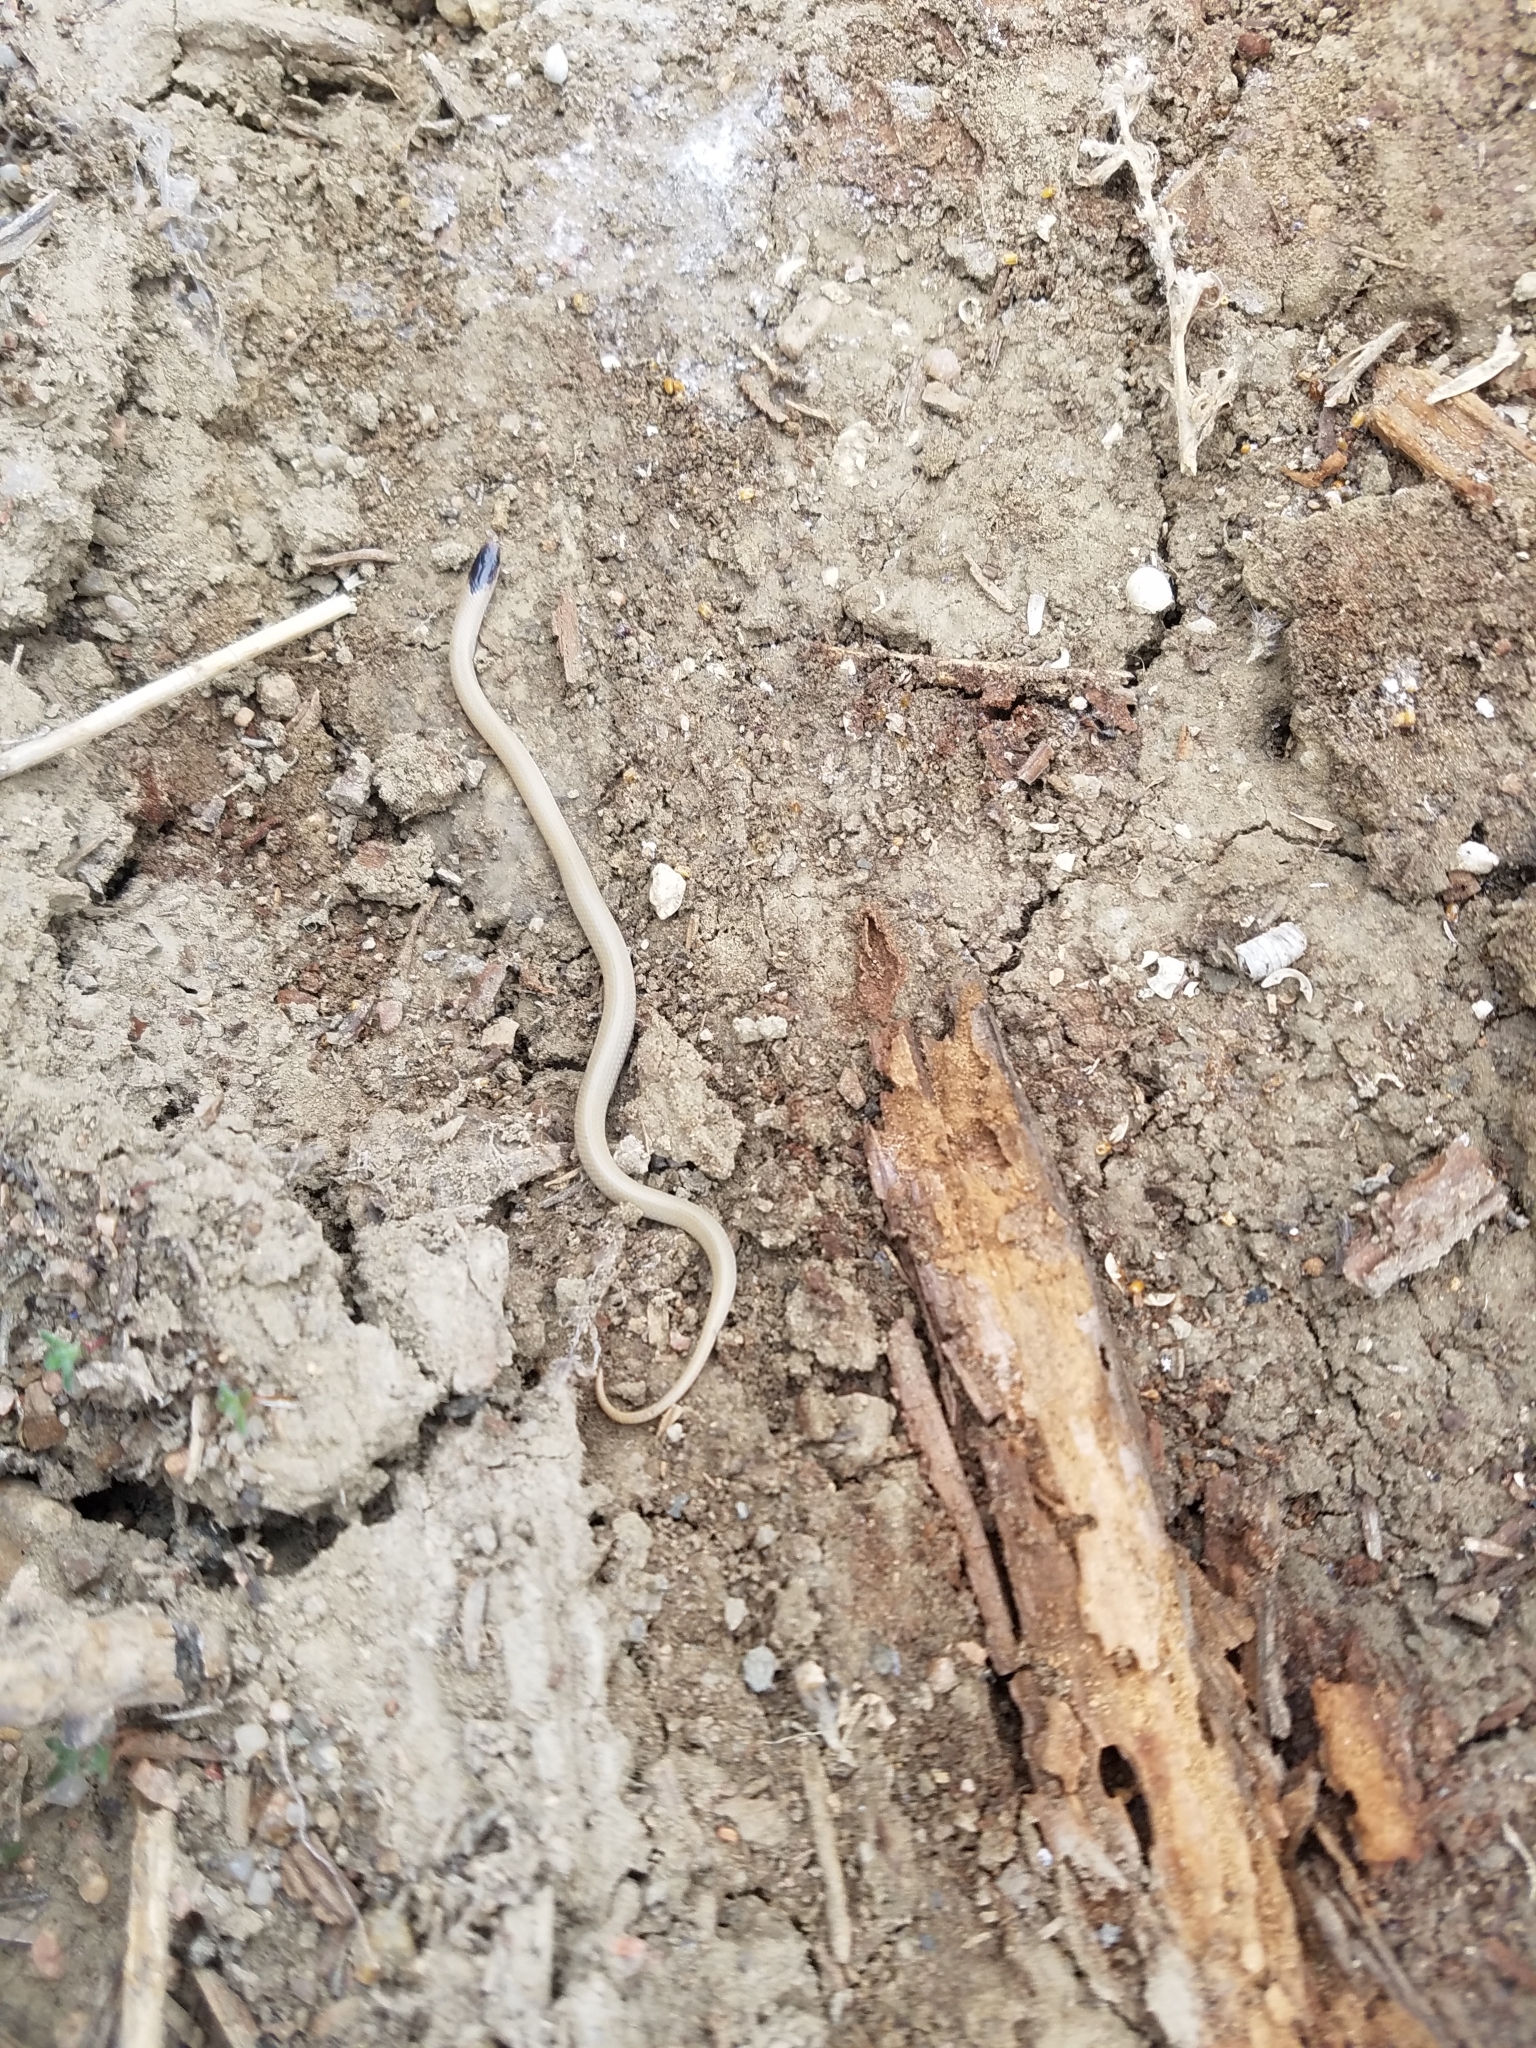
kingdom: Animalia
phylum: Chordata
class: Squamata
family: Colubridae
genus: Tantilla
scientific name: Tantilla nigriceps
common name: Plains blackhead snake
